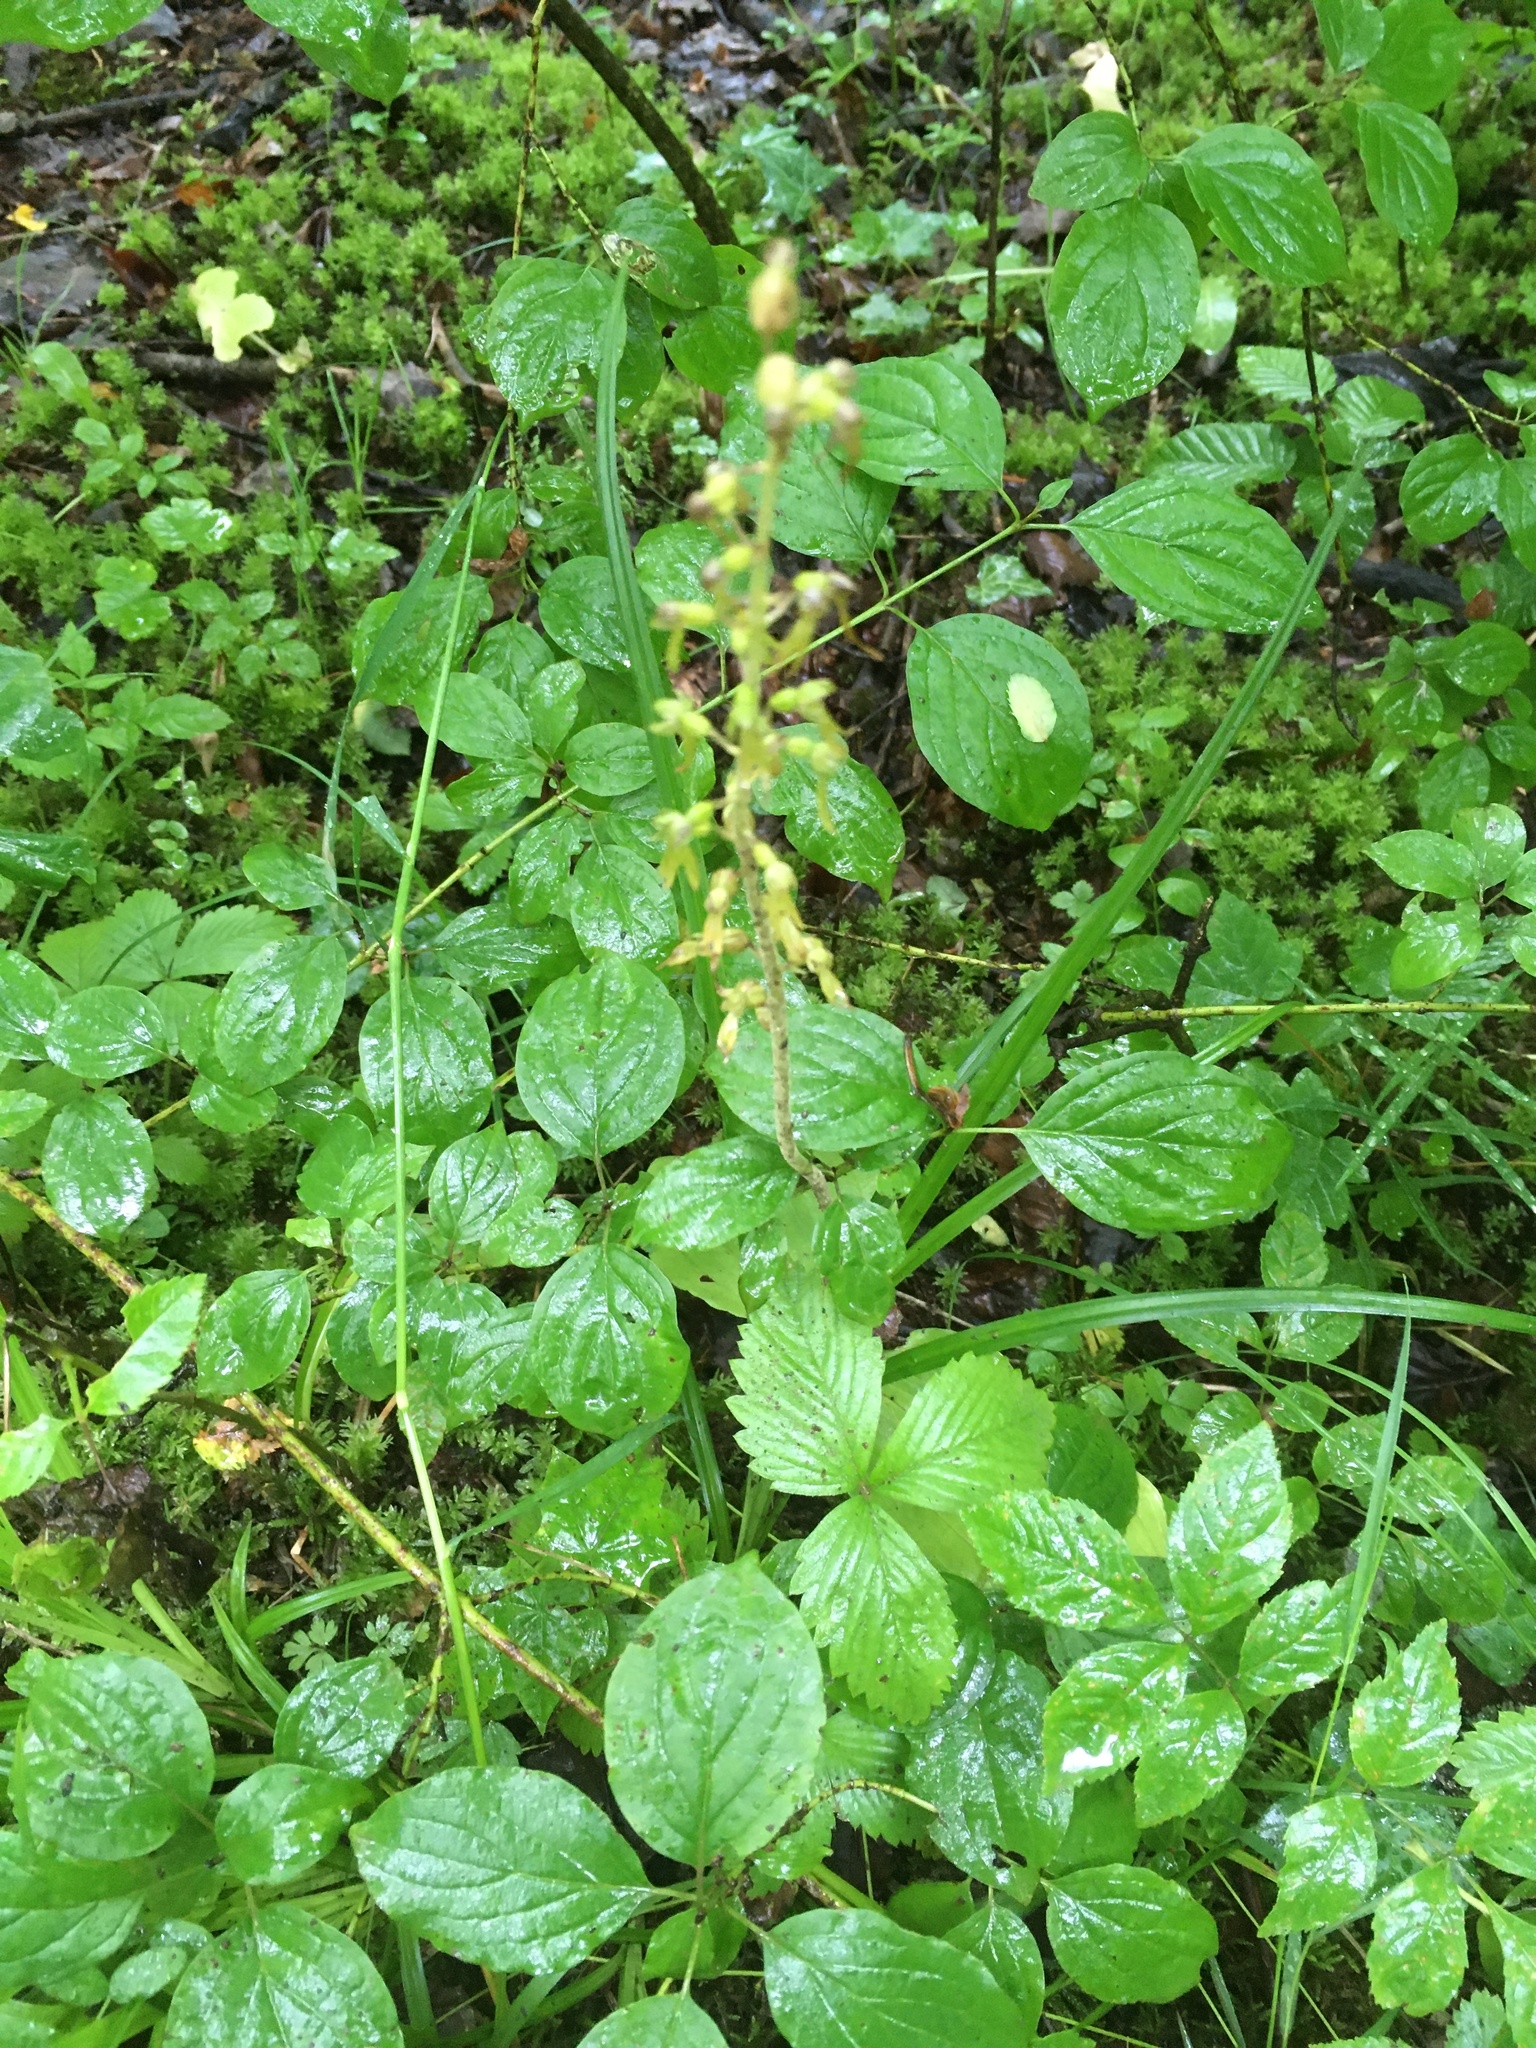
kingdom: Plantae
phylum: Tracheophyta
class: Liliopsida
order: Asparagales
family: Orchidaceae
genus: Neottia
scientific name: Neottia ovata
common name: Common twayblade
